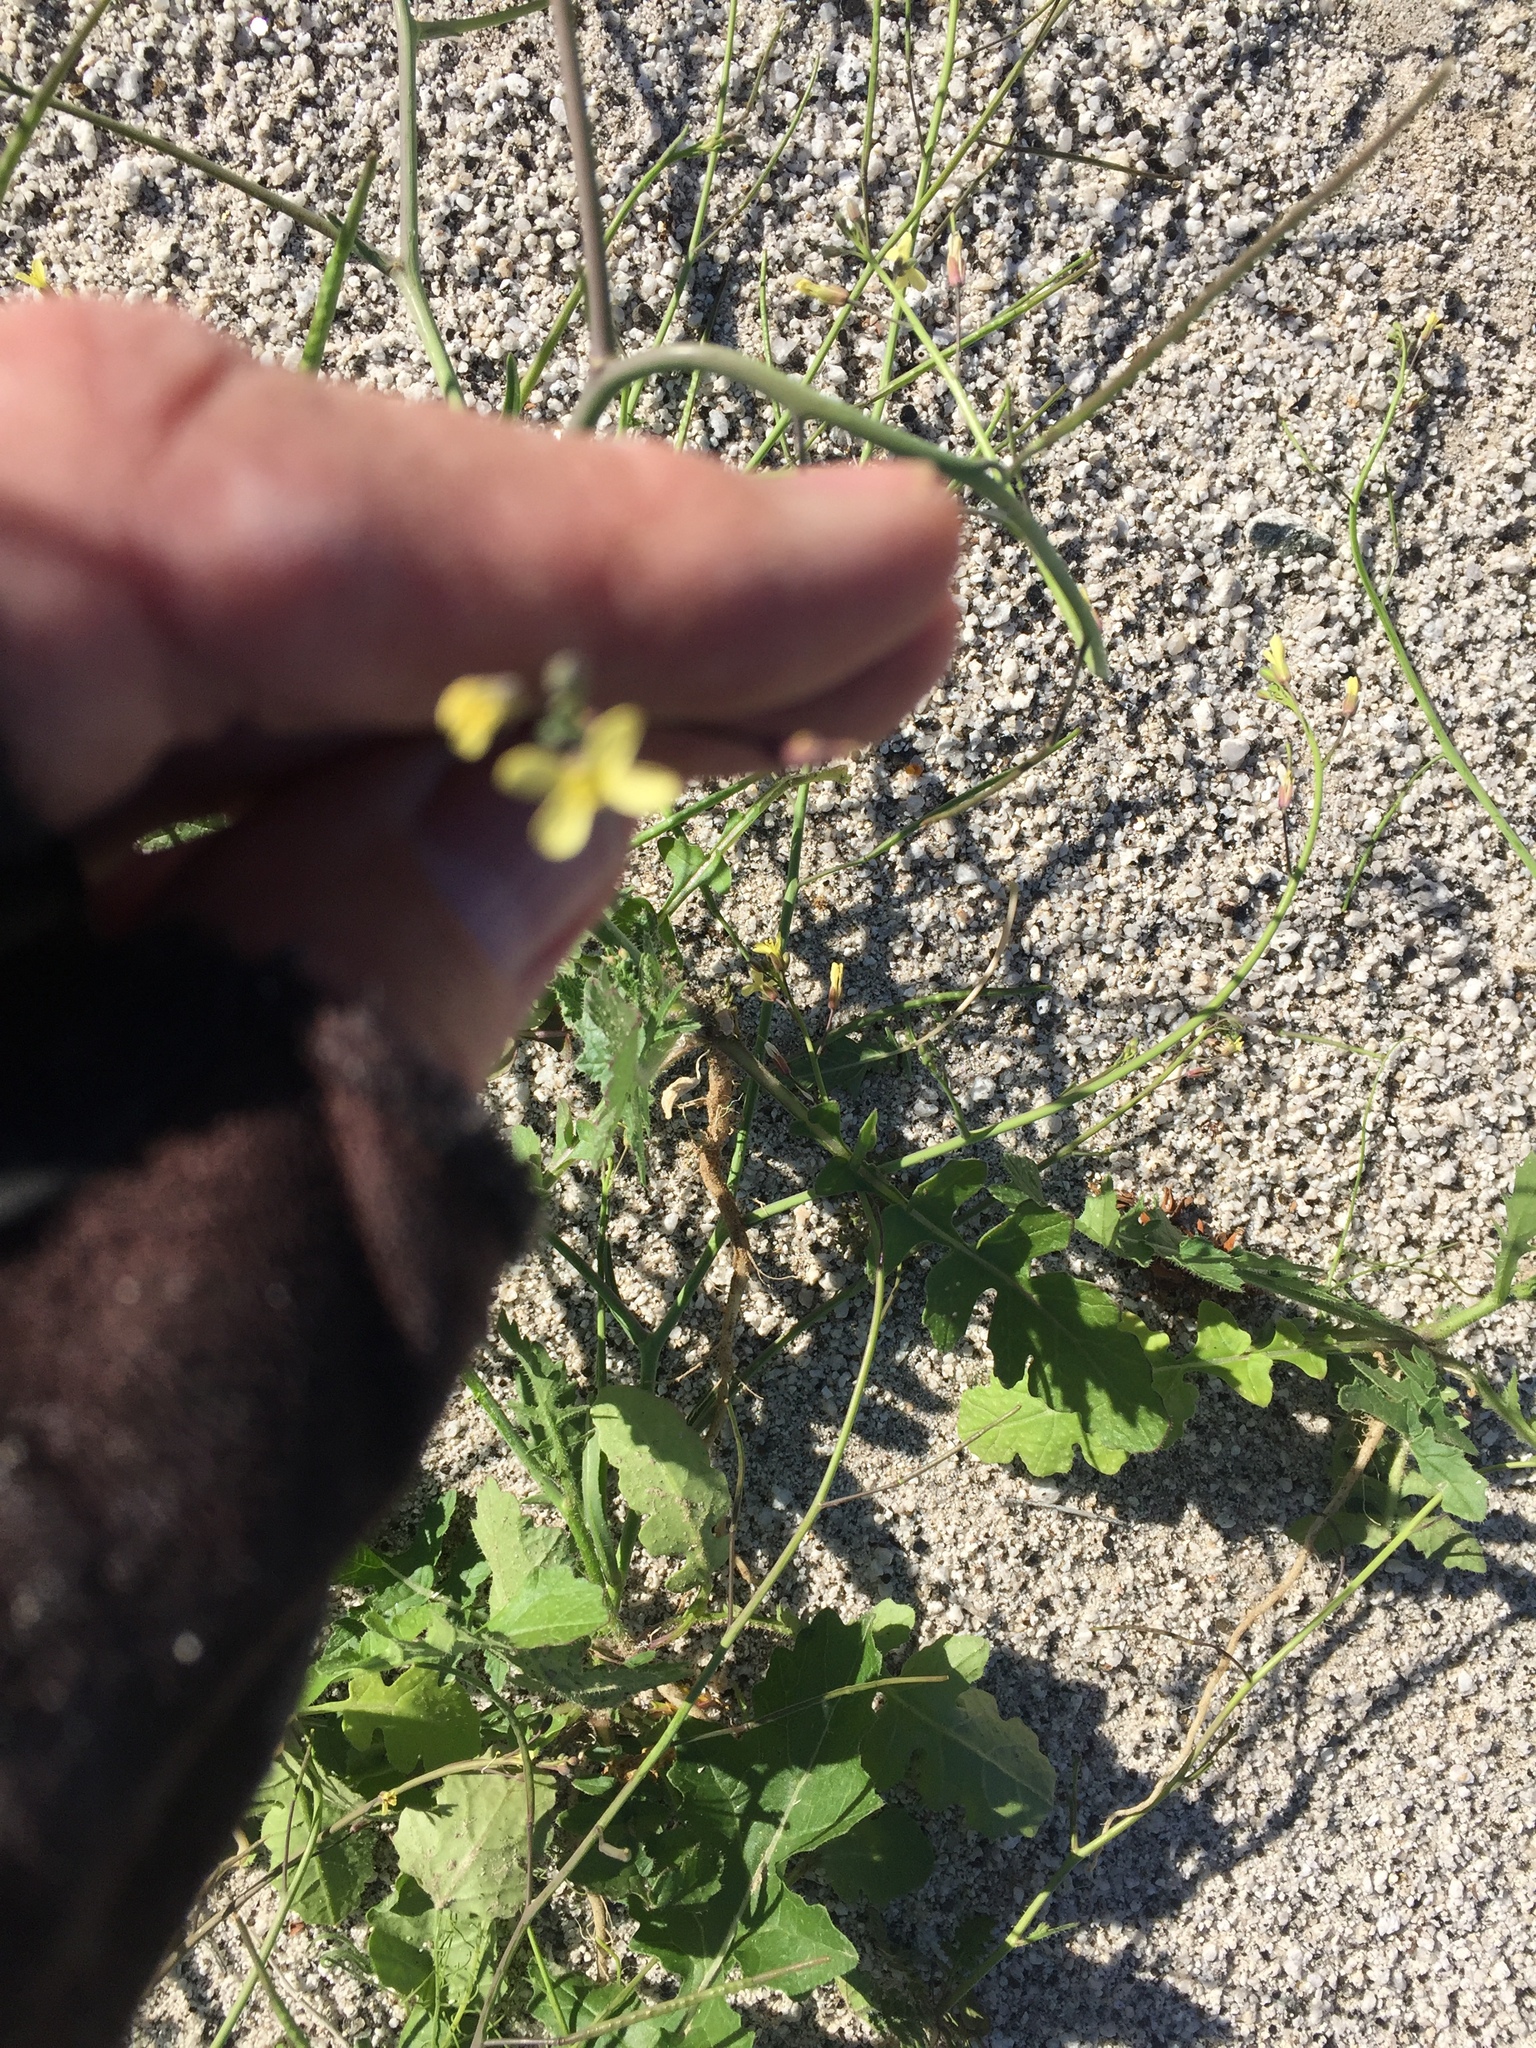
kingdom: Plantae
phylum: Tracheophyta
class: Magnoliopsida
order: Brassicales
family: Brassicaceae
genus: Brassica
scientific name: Brassica tournefortii
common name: Pale cabbage
